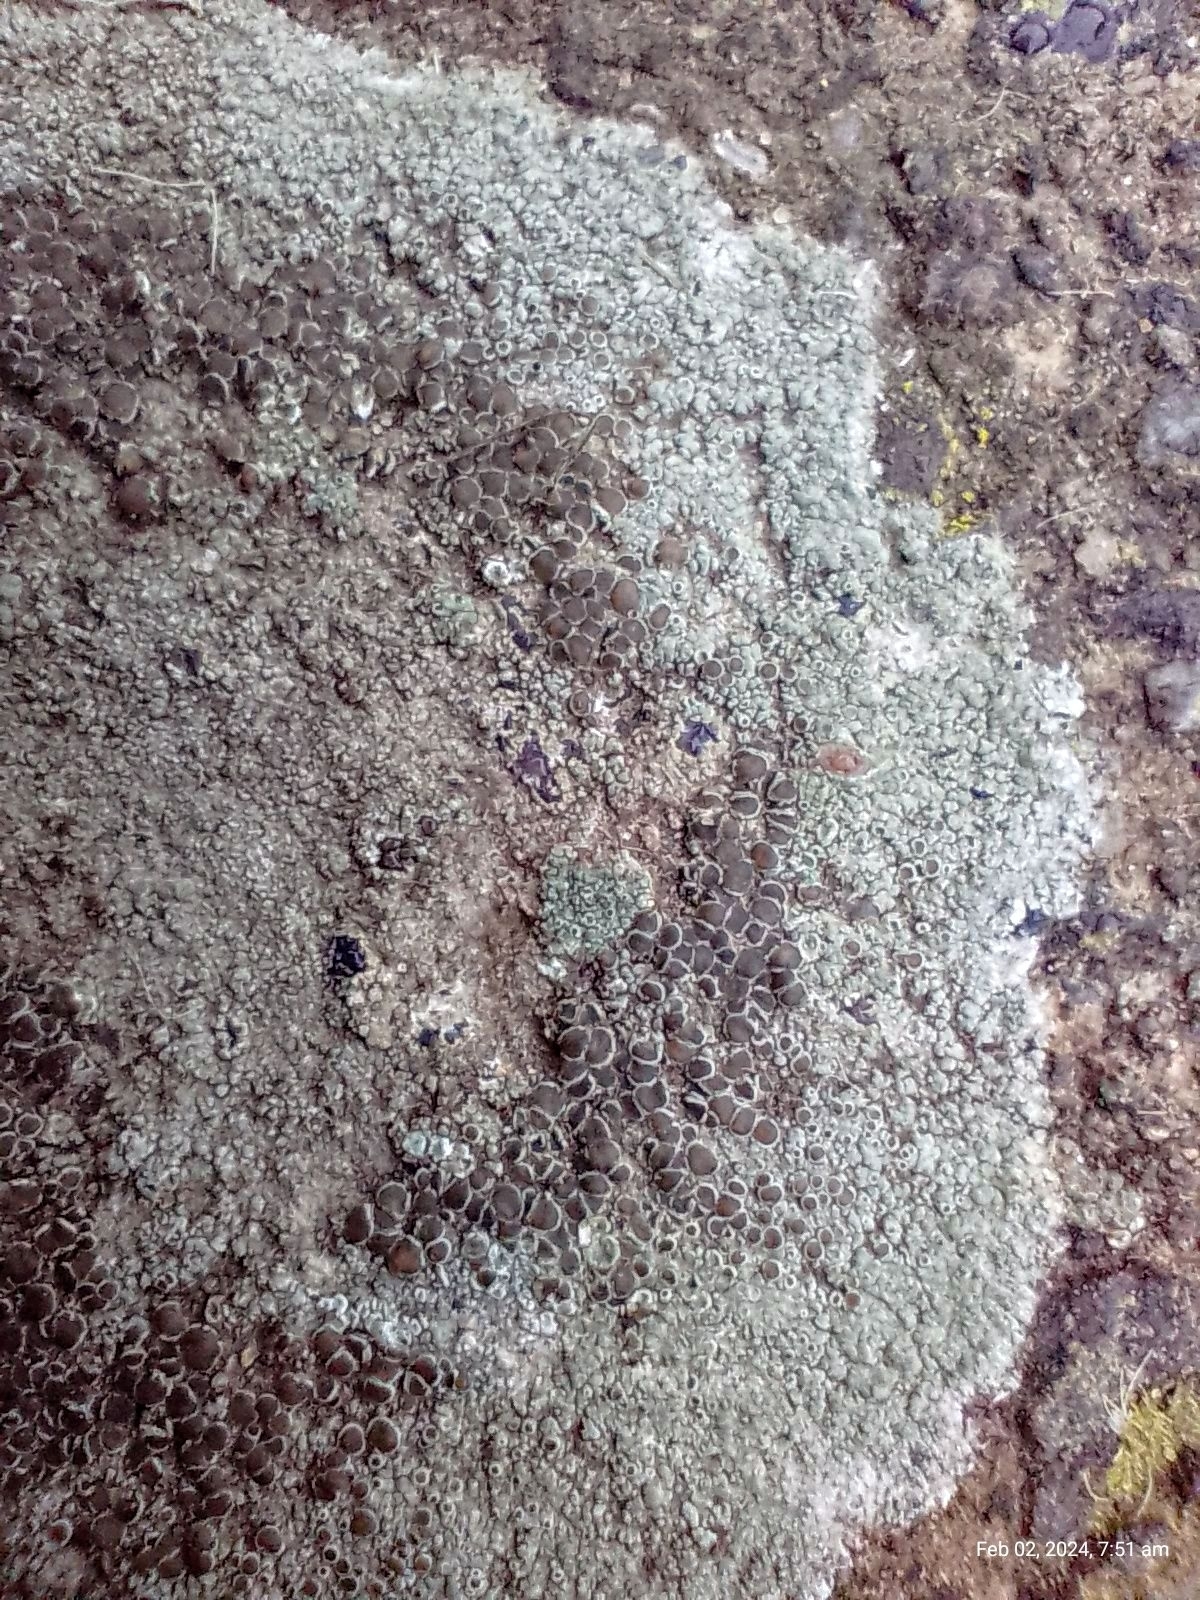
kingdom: Fungi
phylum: Ascomycota
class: Lecanoromycetes
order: Lecanorales
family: Lecanoraceae
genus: Lecanora
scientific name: Lecanora campestris
